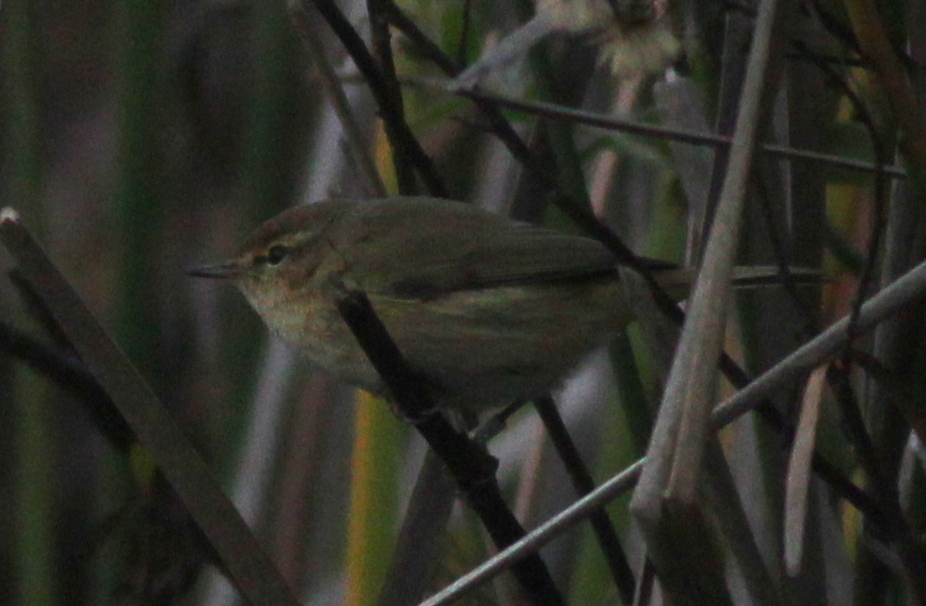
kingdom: Animalia
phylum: Chordata
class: Aves
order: Passeriformes
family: Phylloscopidae
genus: Phylloscopus
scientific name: Phylloscopus collybita
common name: Common chiffchaff
